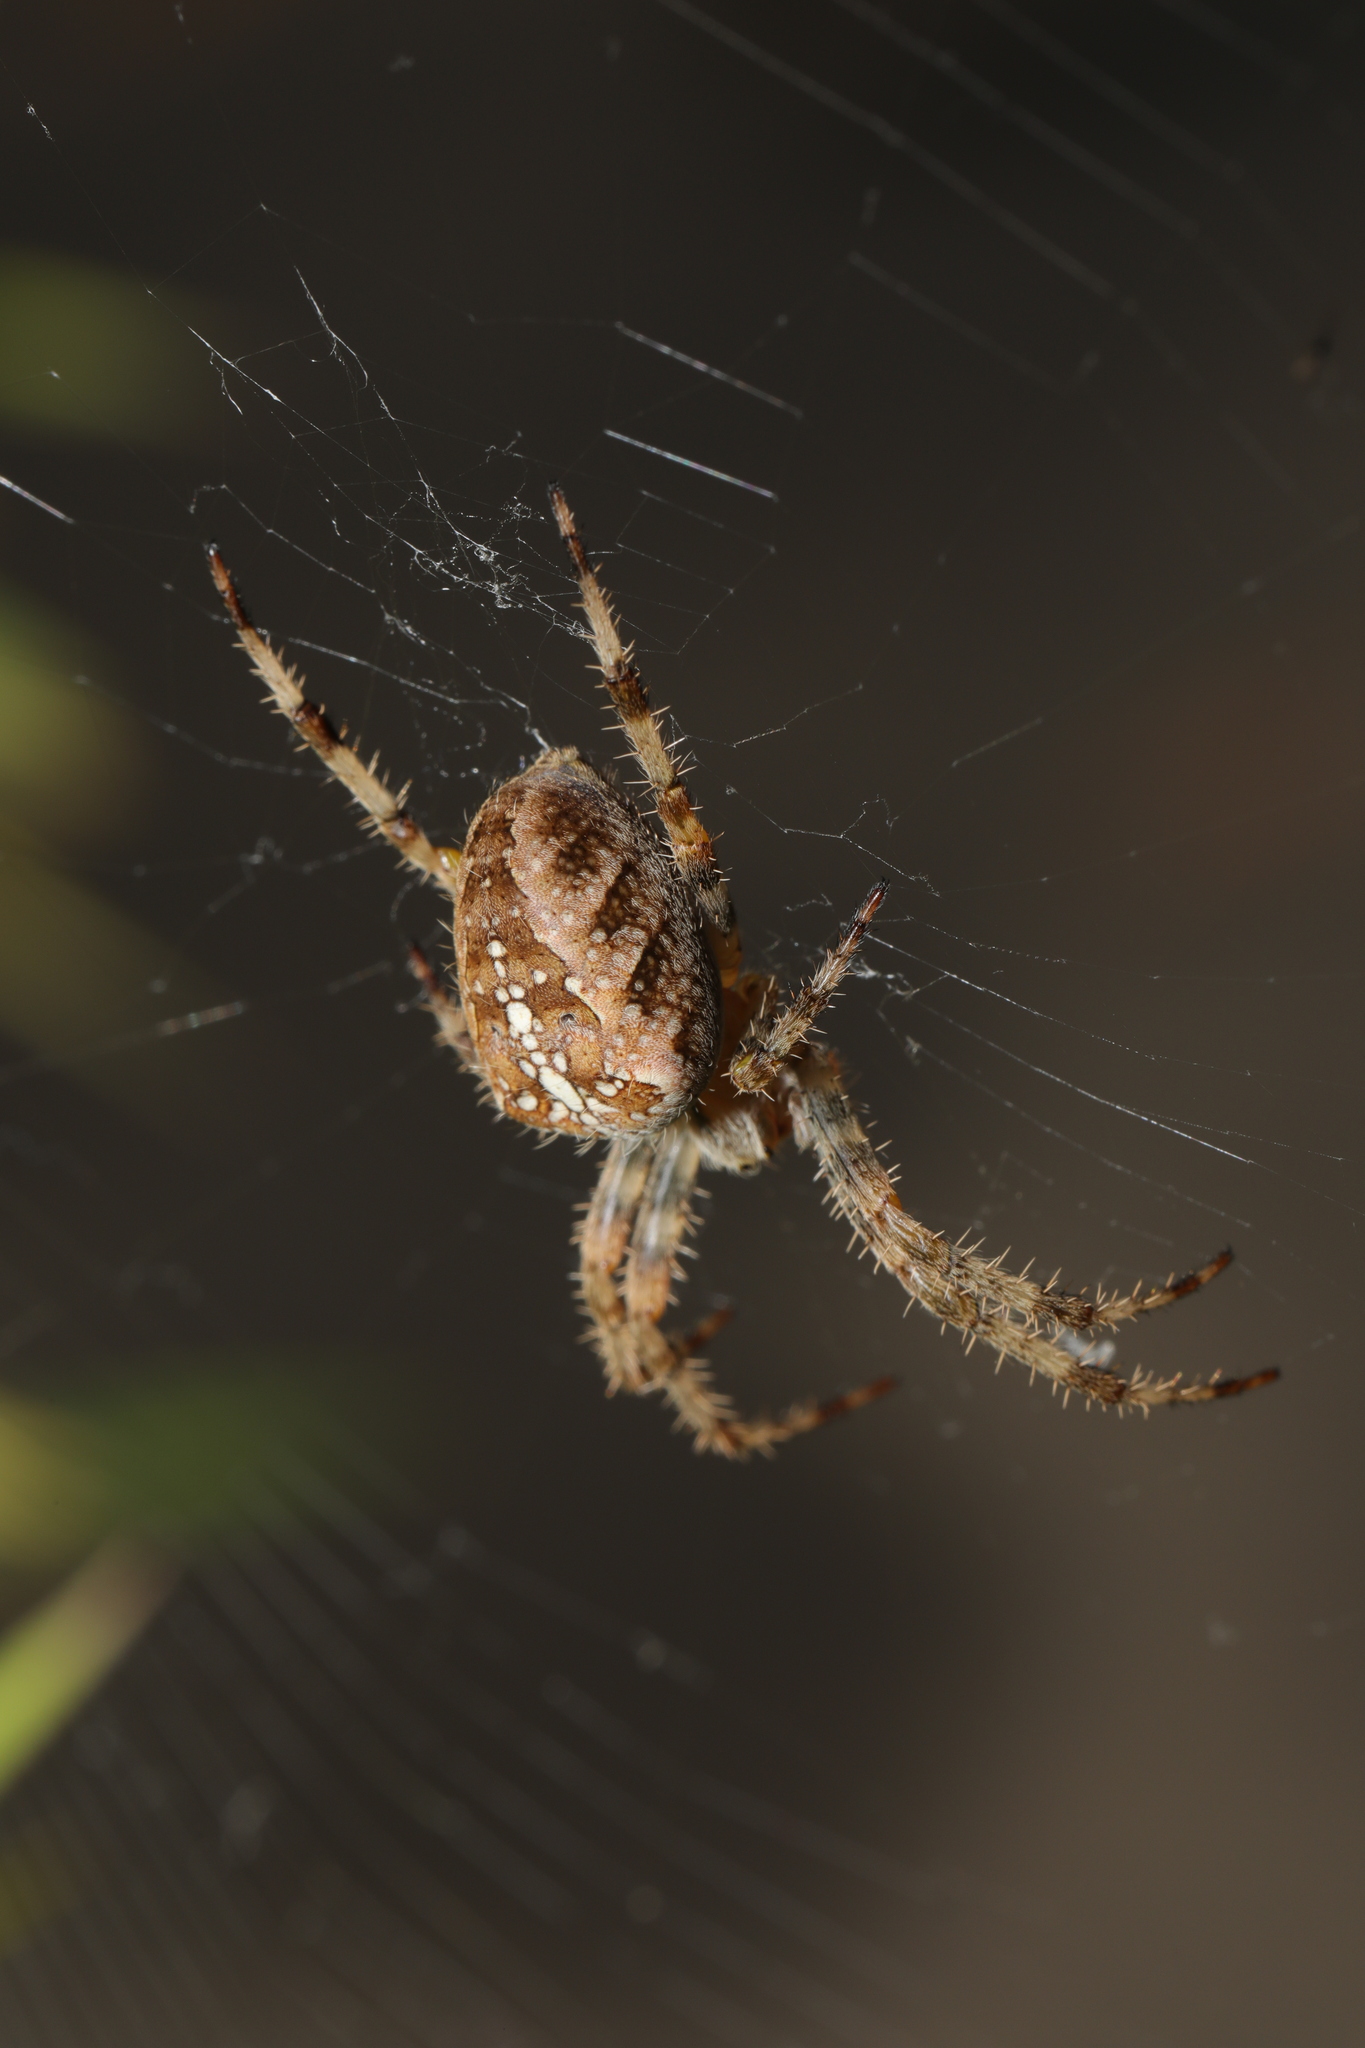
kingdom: Animalia
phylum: Arthropoda
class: Arachnida
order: Araneae
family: Araneidae
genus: Araneus
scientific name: Araneus diadematus
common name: Cross orbweaver
